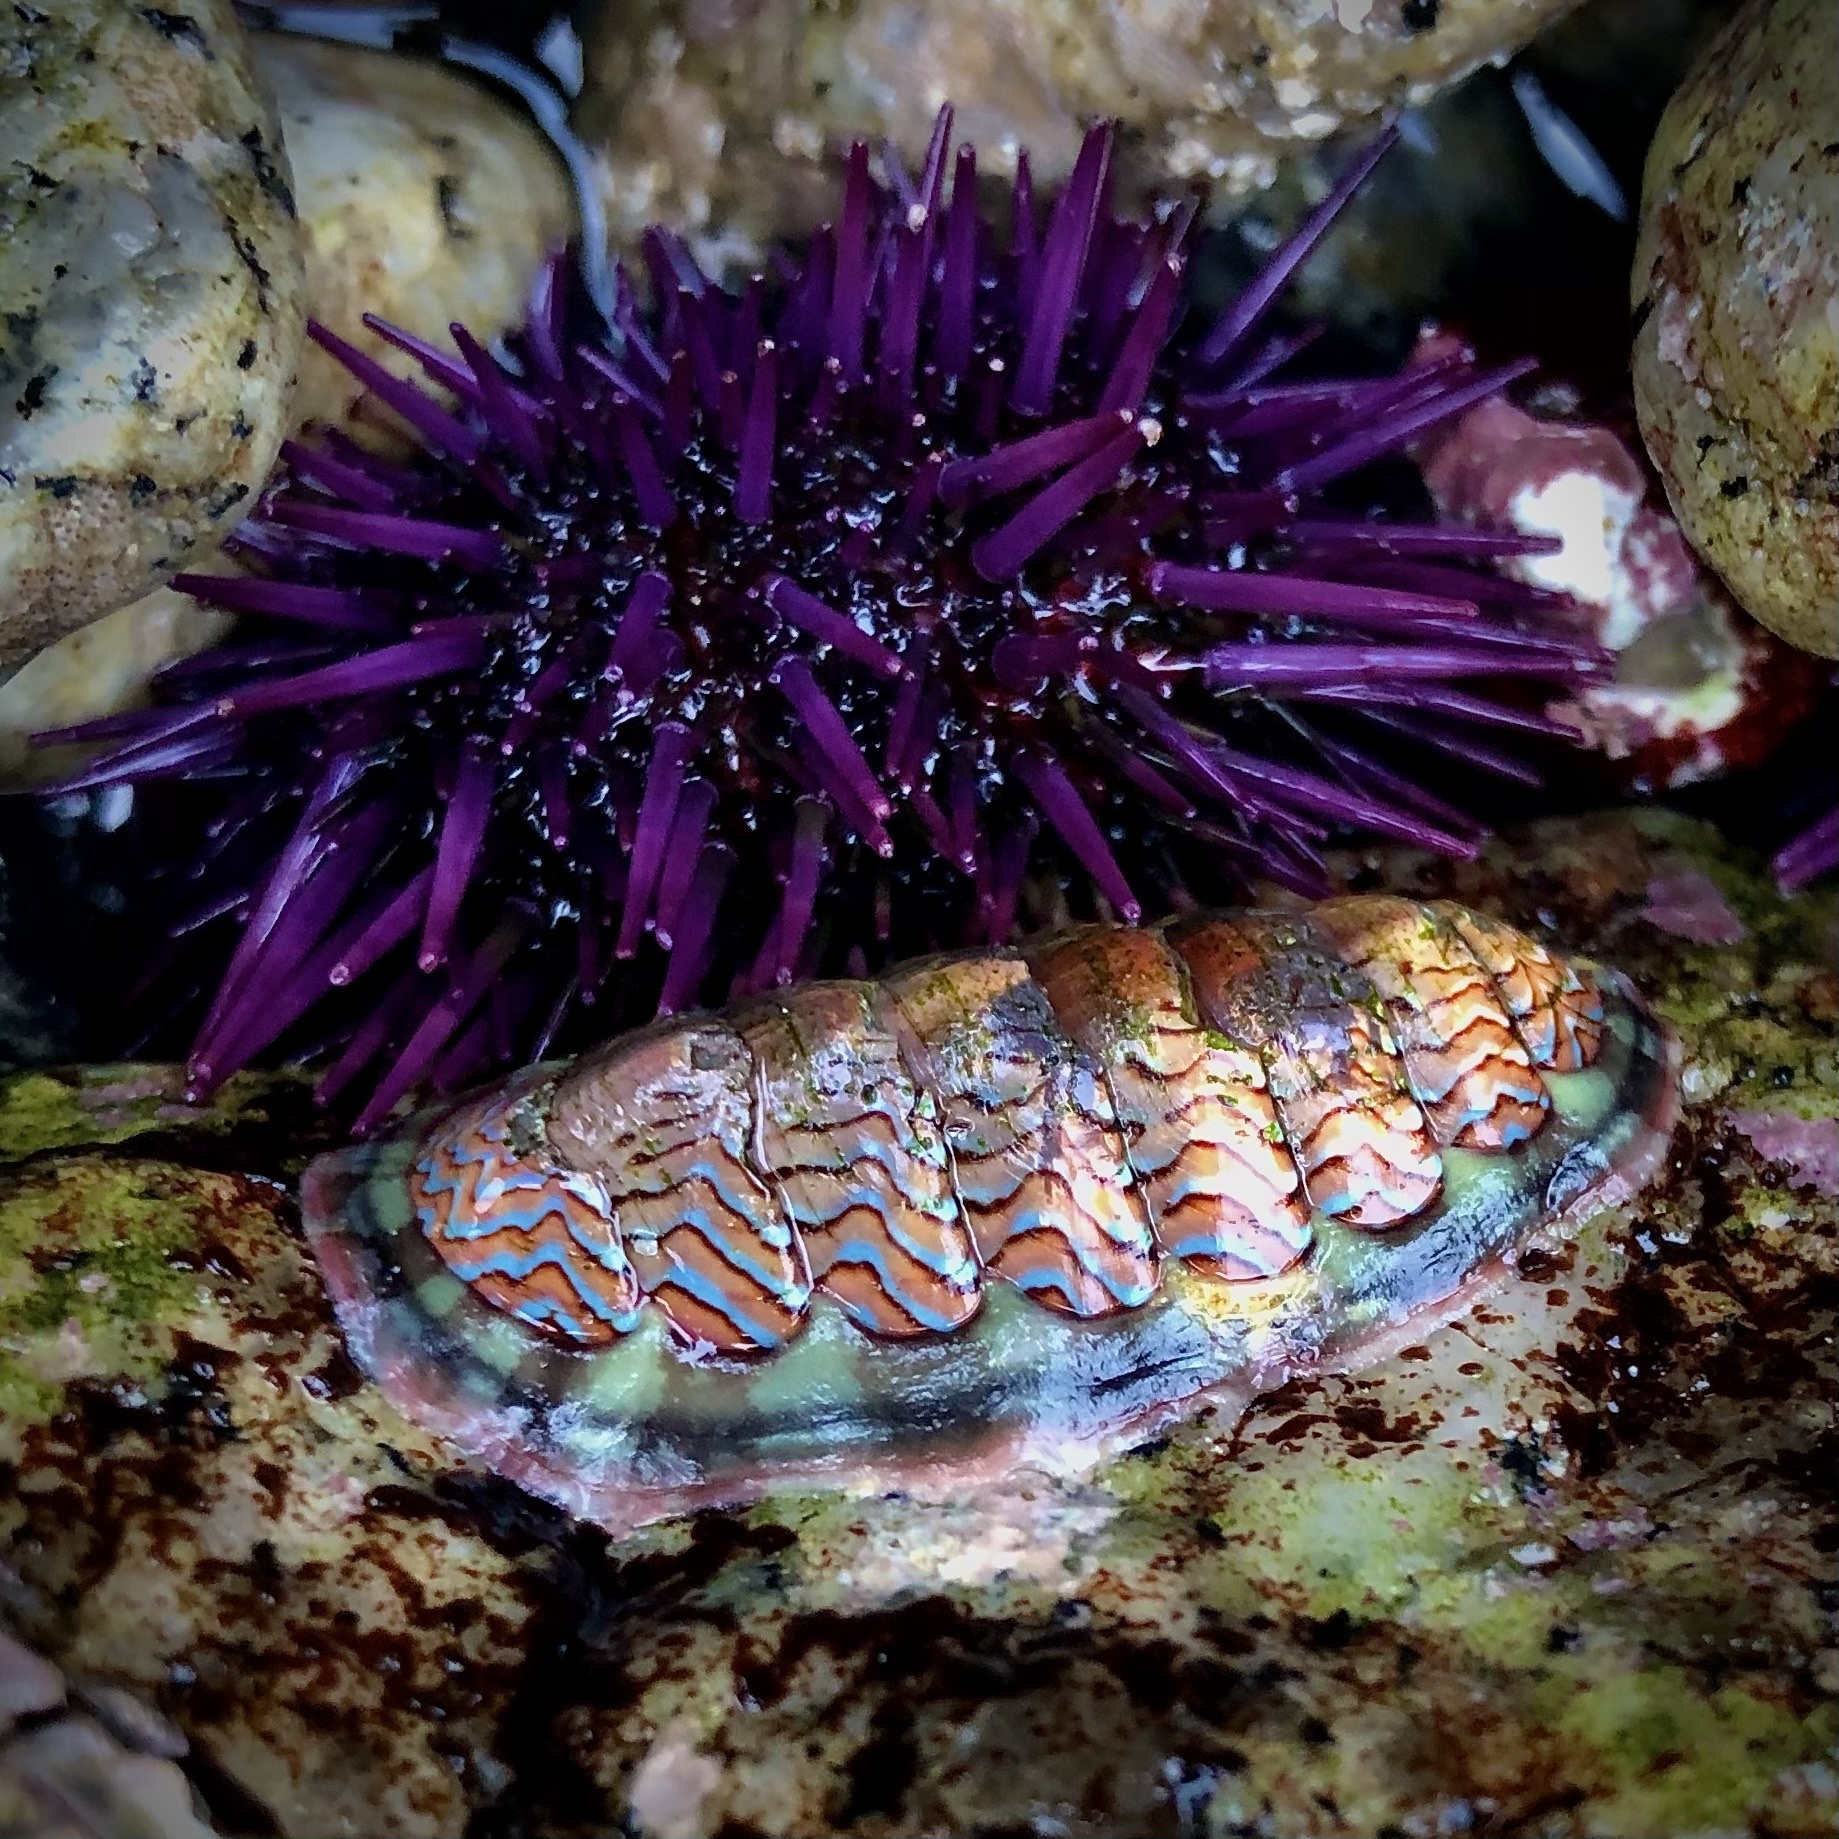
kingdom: Animalia
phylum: Mollusca
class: Polyplacophora
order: Chitonida
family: Tonicellidae
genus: Tonicella
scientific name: Tonicella lokii
